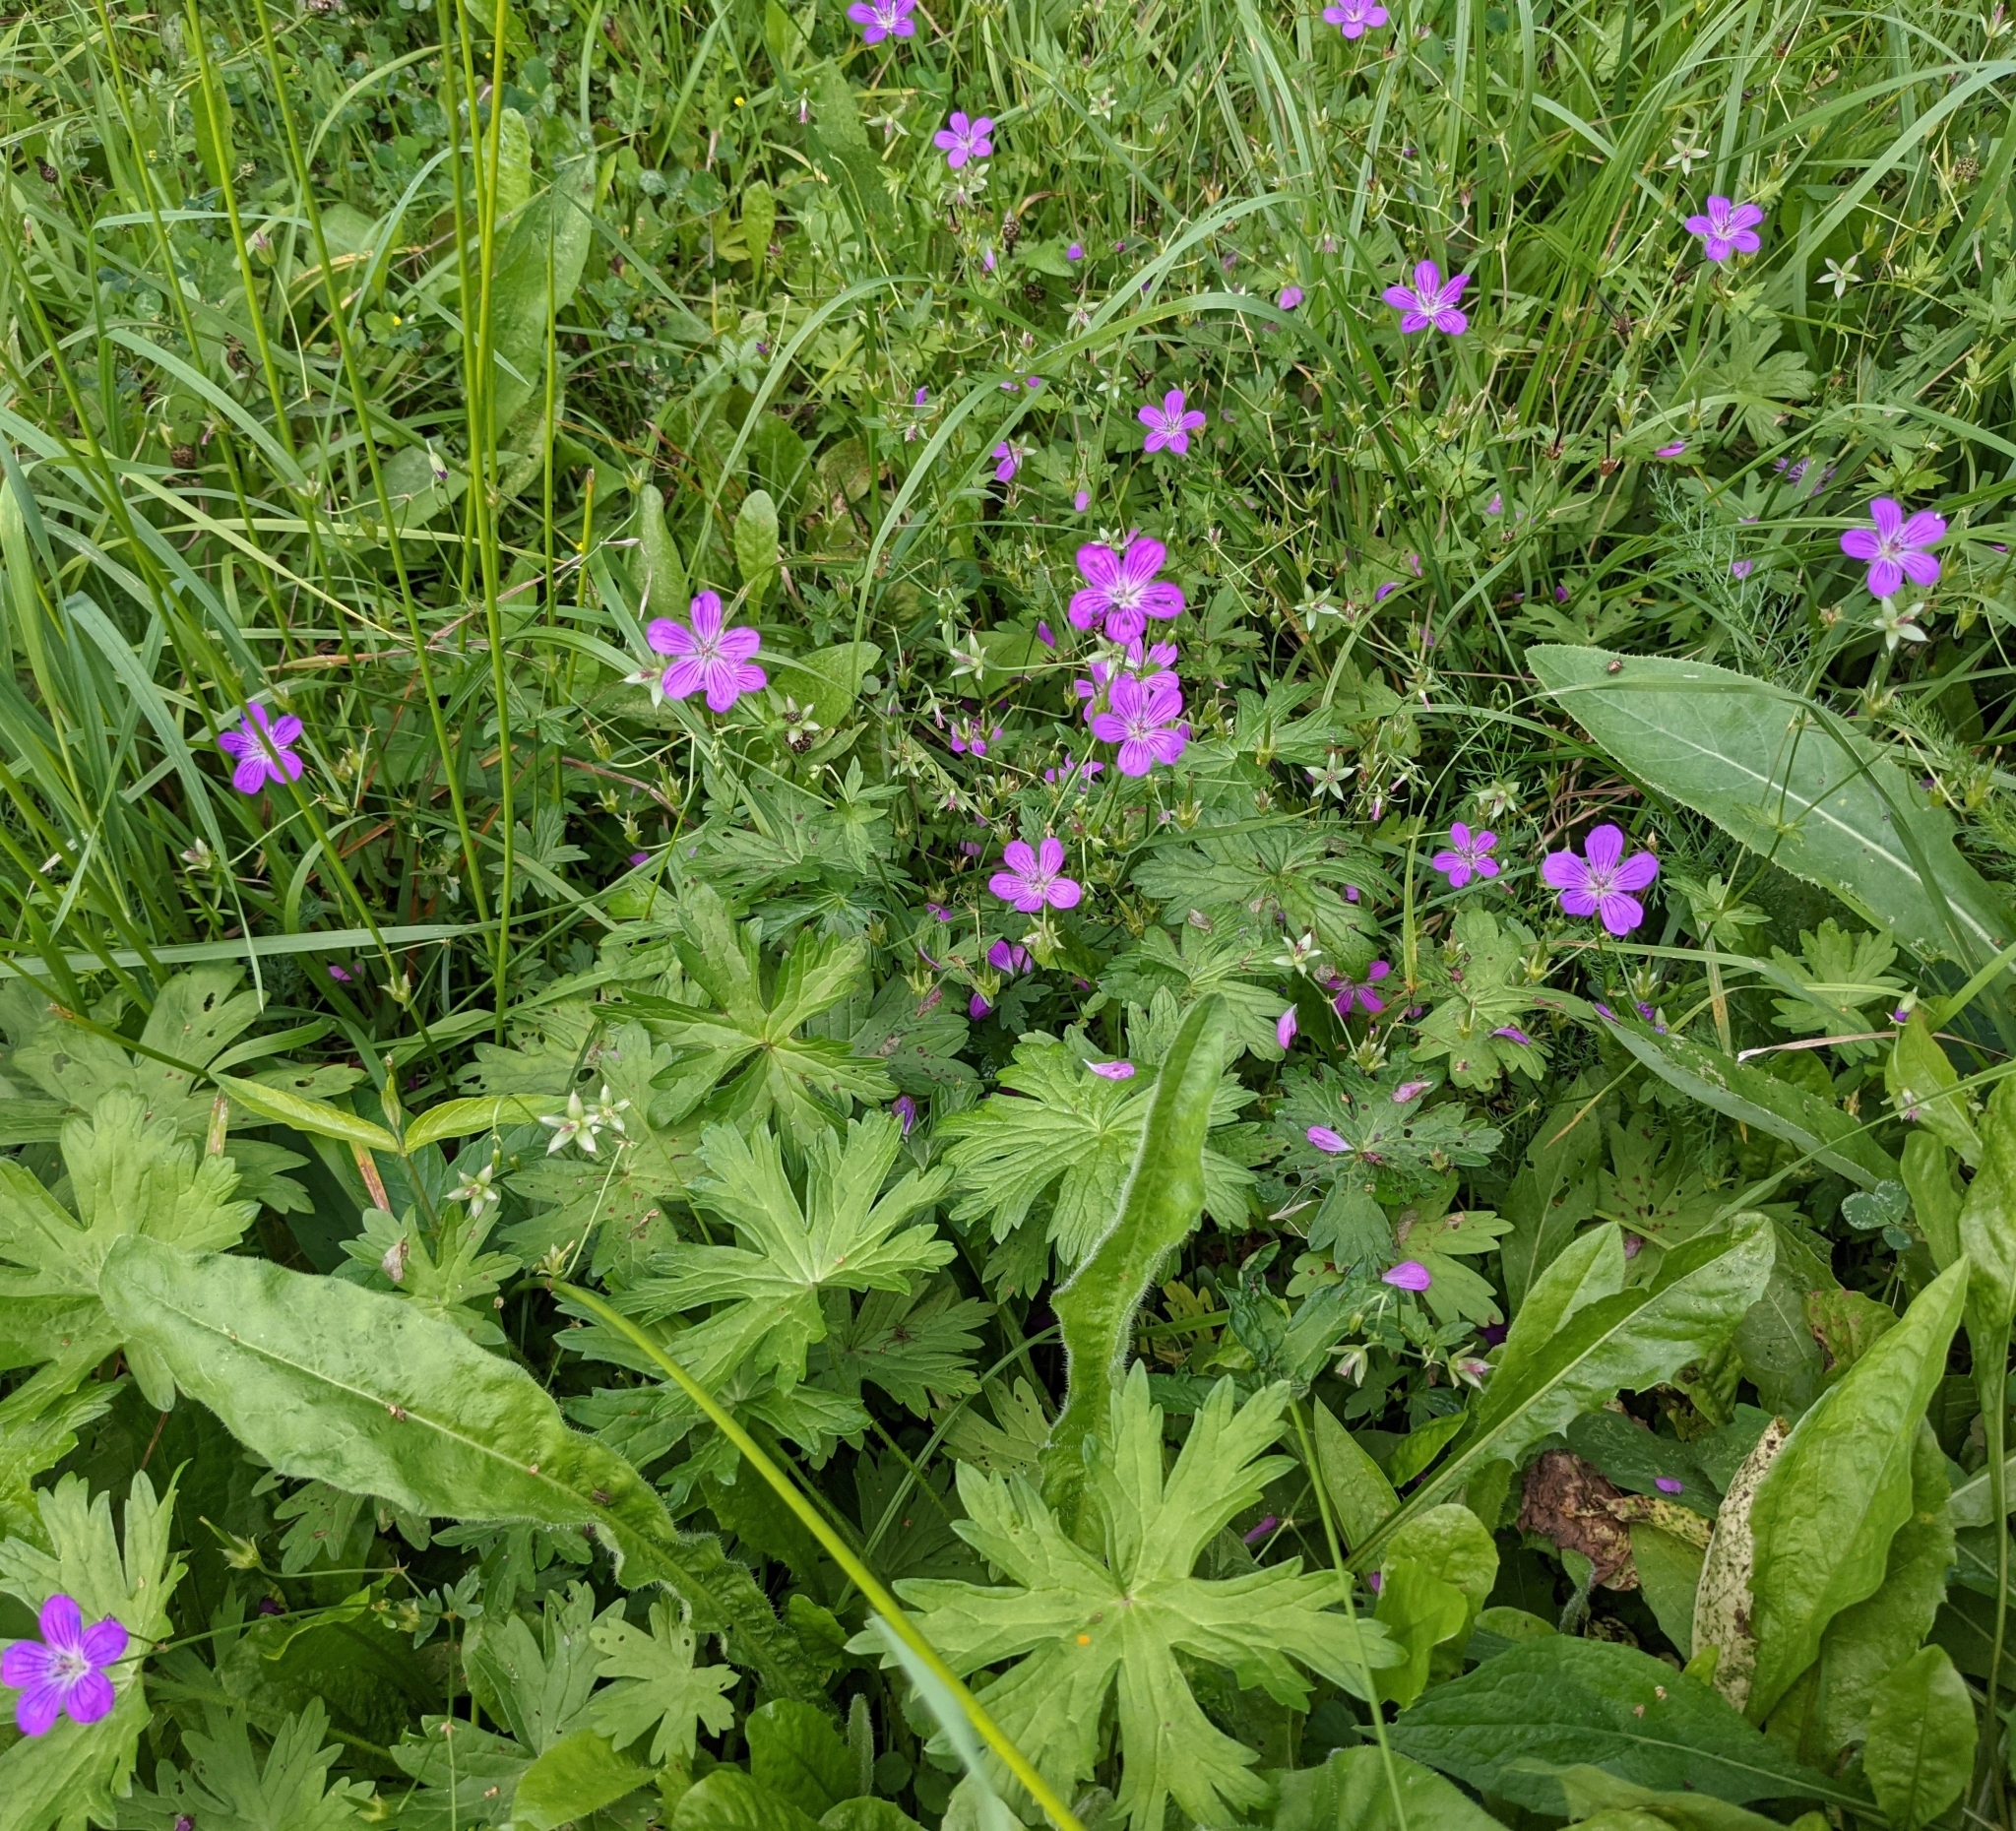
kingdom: Plantae
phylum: Tracheophyta
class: Magnoliopsida
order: Geraniales
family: Geraniaceae
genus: Geranium
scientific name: Geranium palustre
